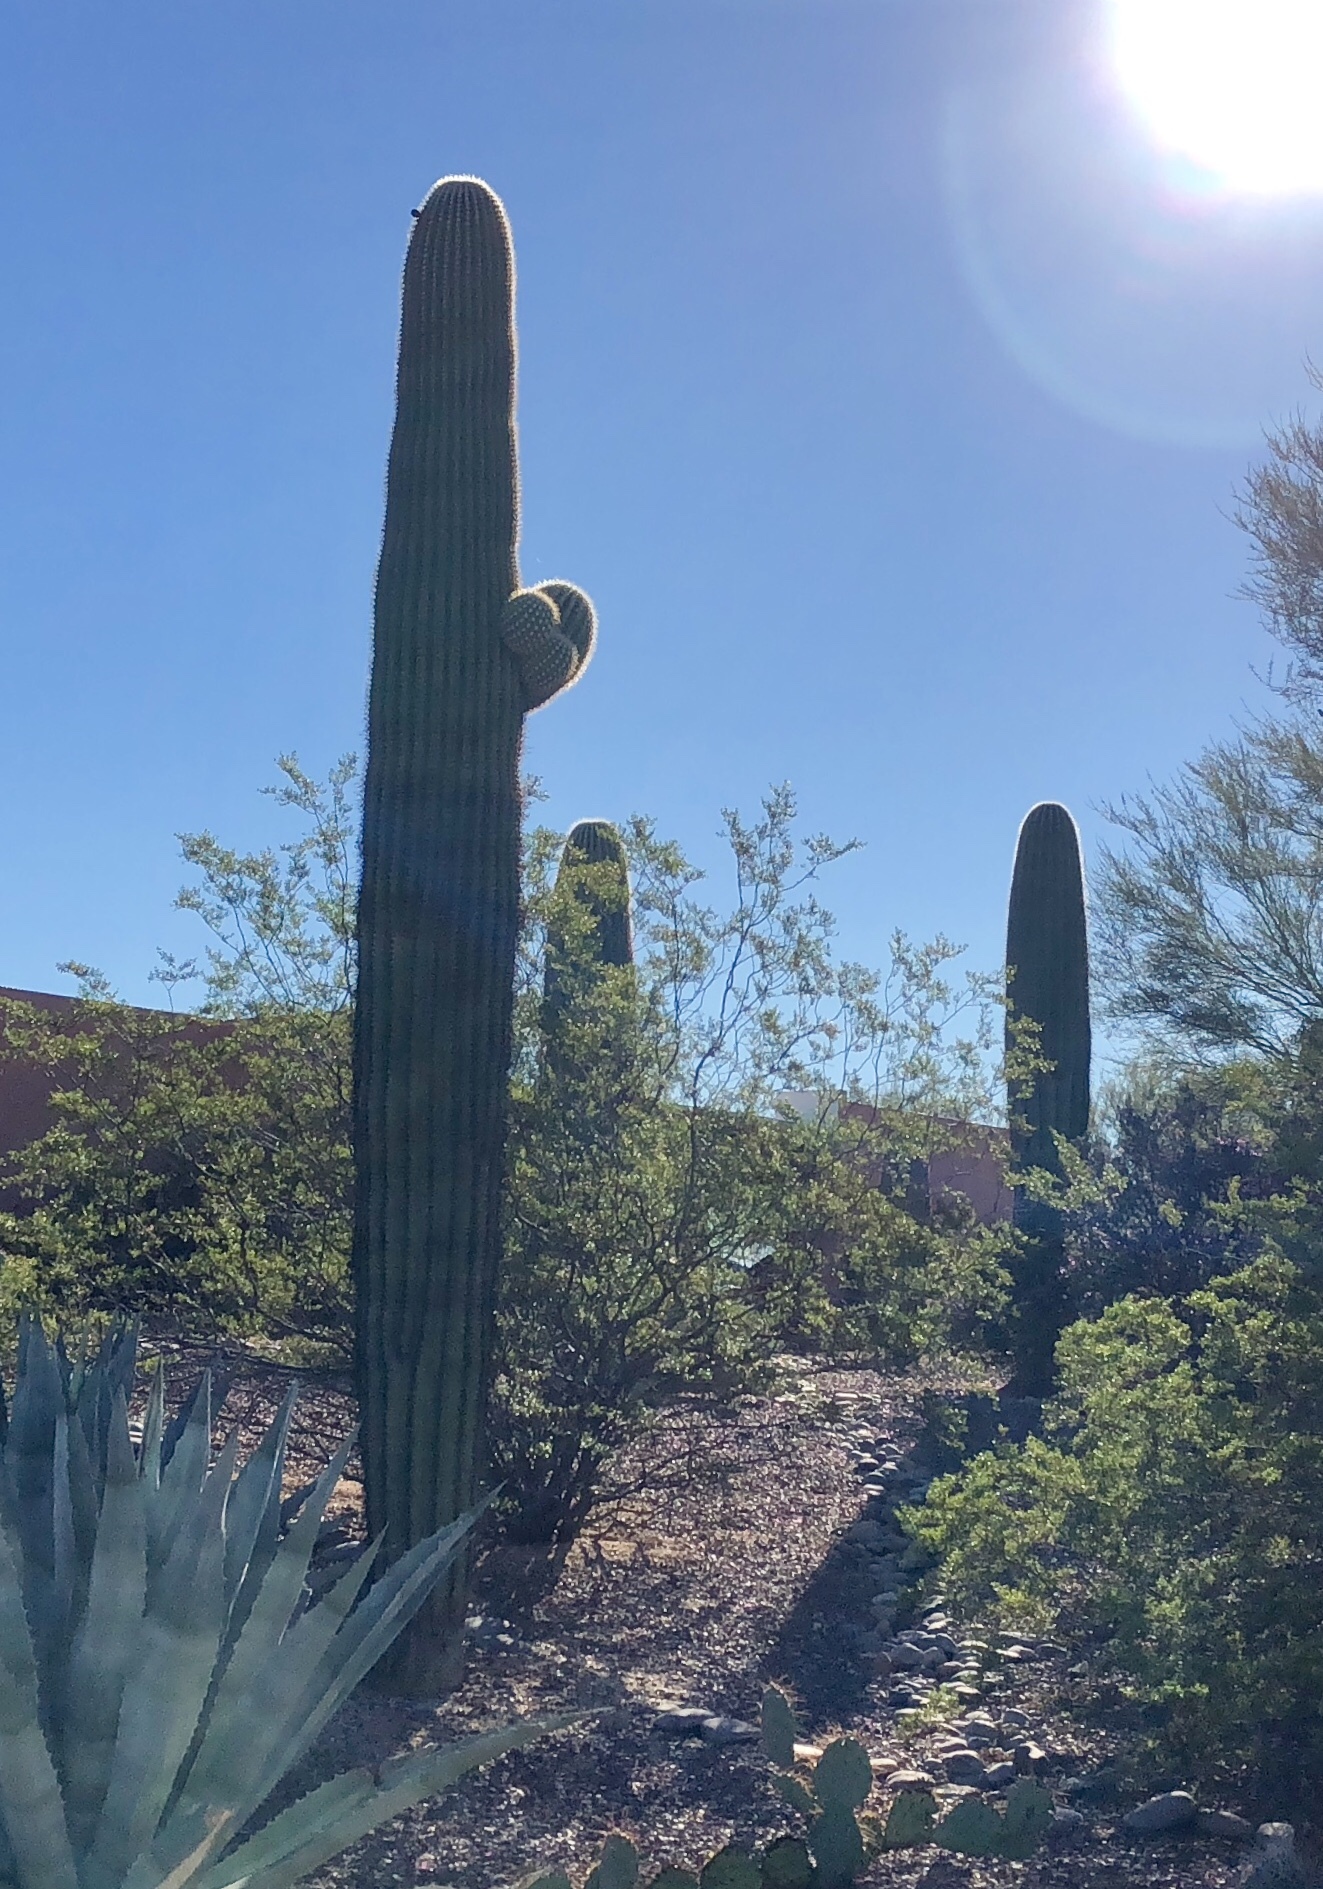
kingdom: Plantae
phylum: Tracheophyta
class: Magnoliopsida
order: Caryophyllales
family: Cactaceae
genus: Carnegiea
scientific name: Carnegiea gigantea
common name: Saguaro
